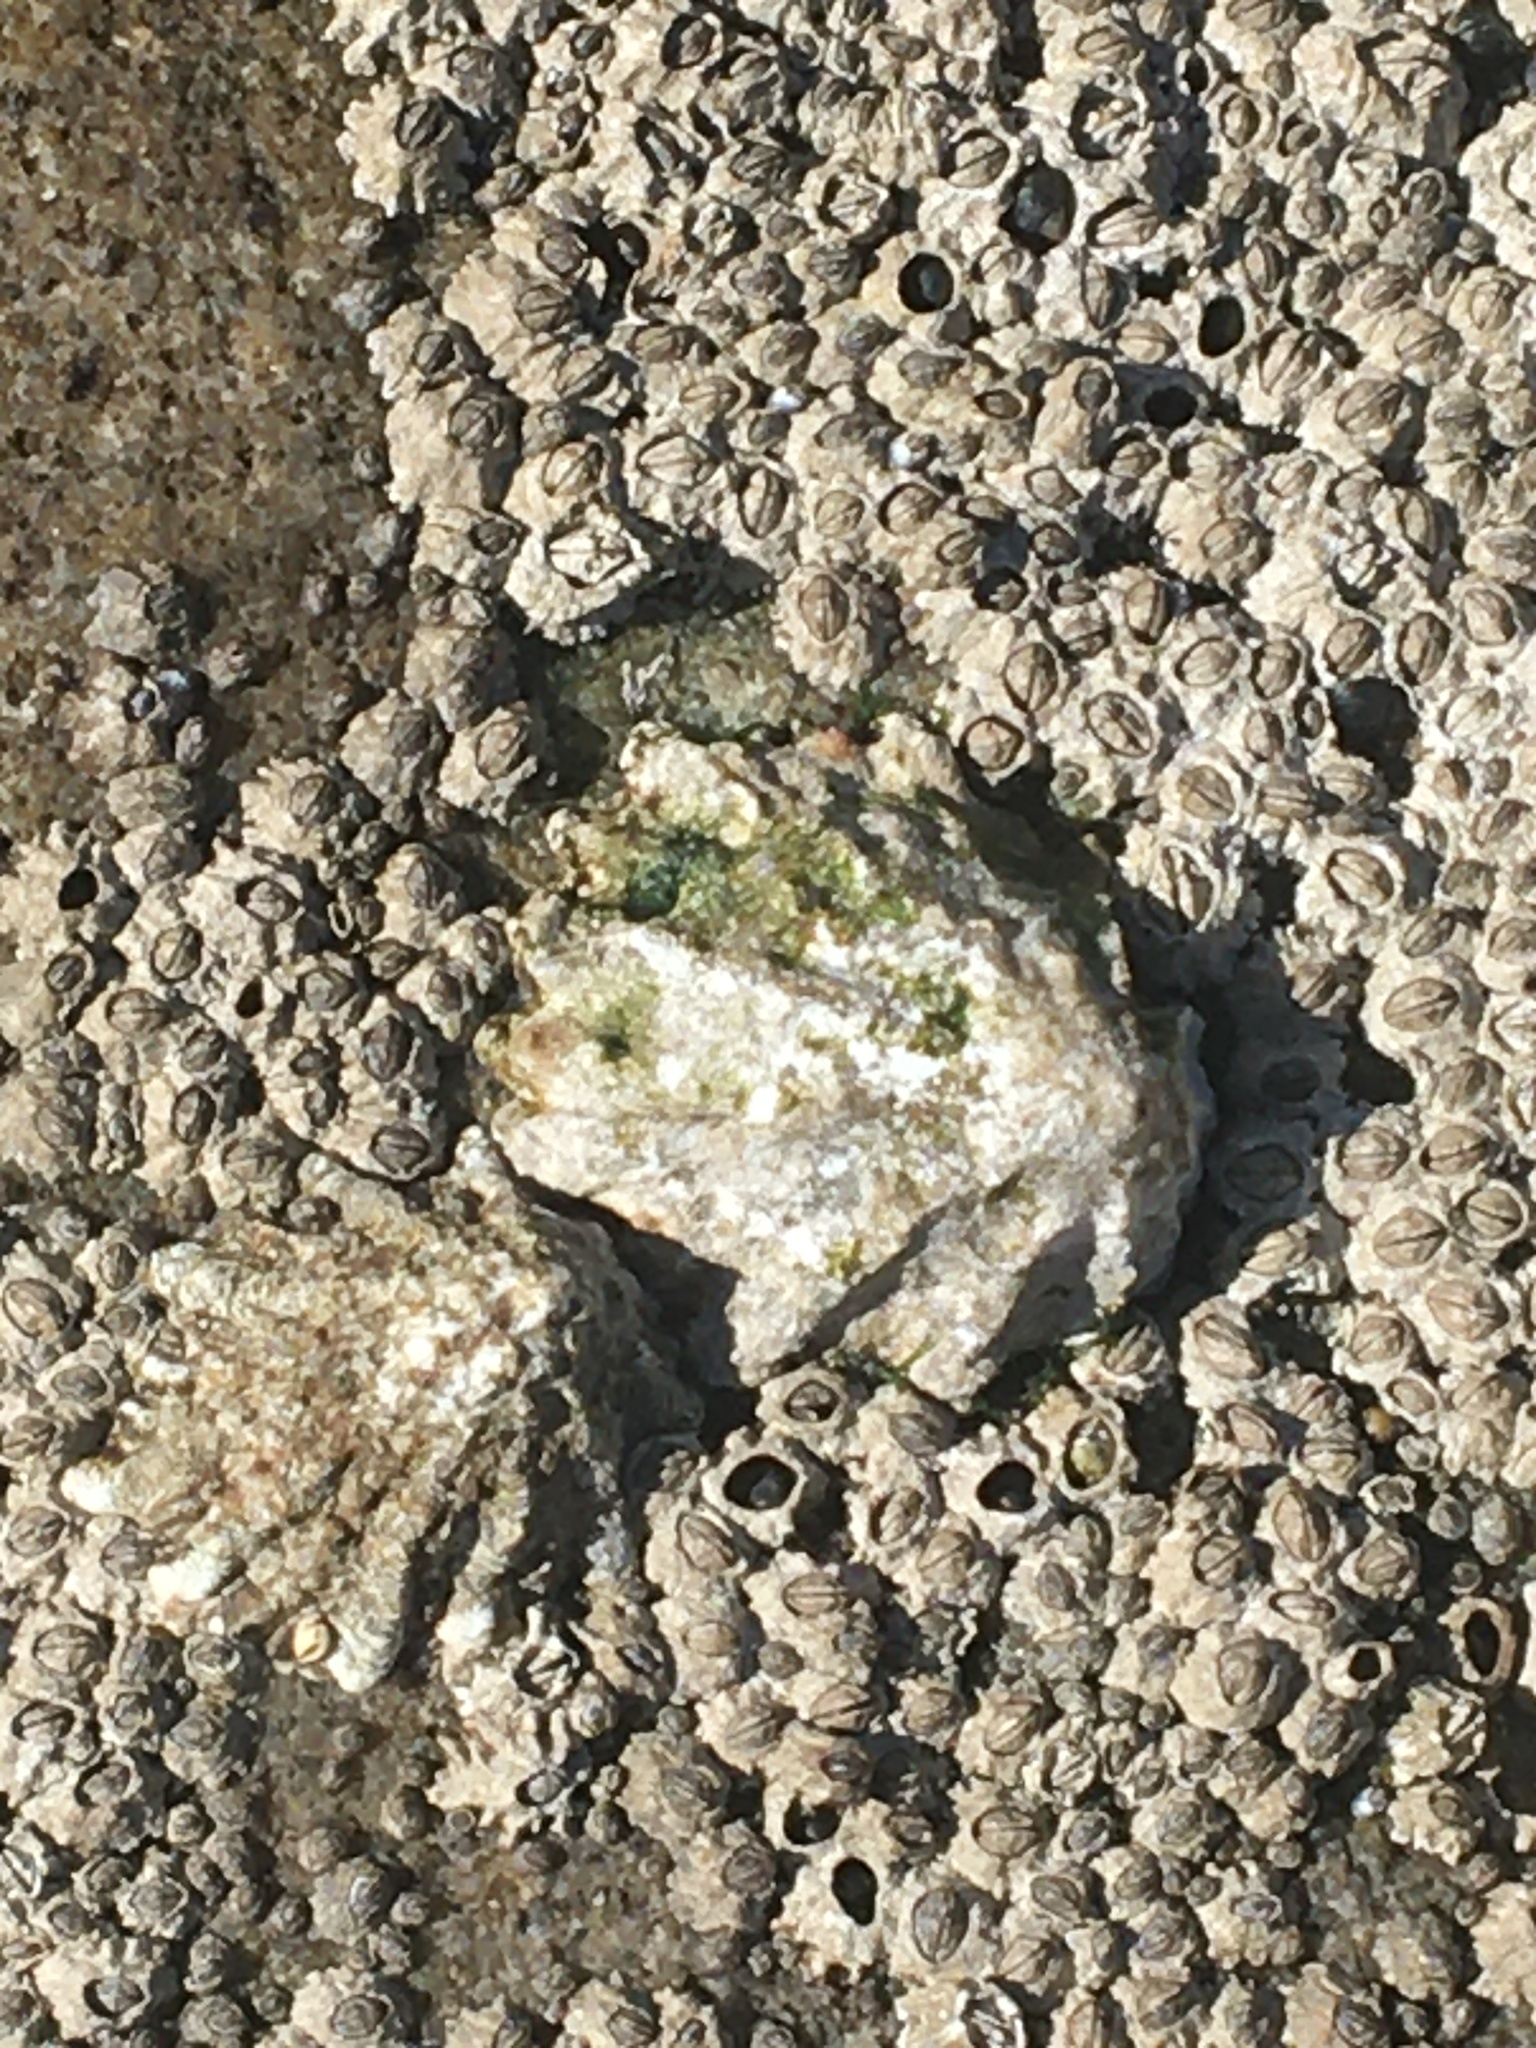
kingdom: Animalia
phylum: Mollusca
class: Gastropoda
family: Lottiidae
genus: Lottia
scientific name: Lottia scabra
